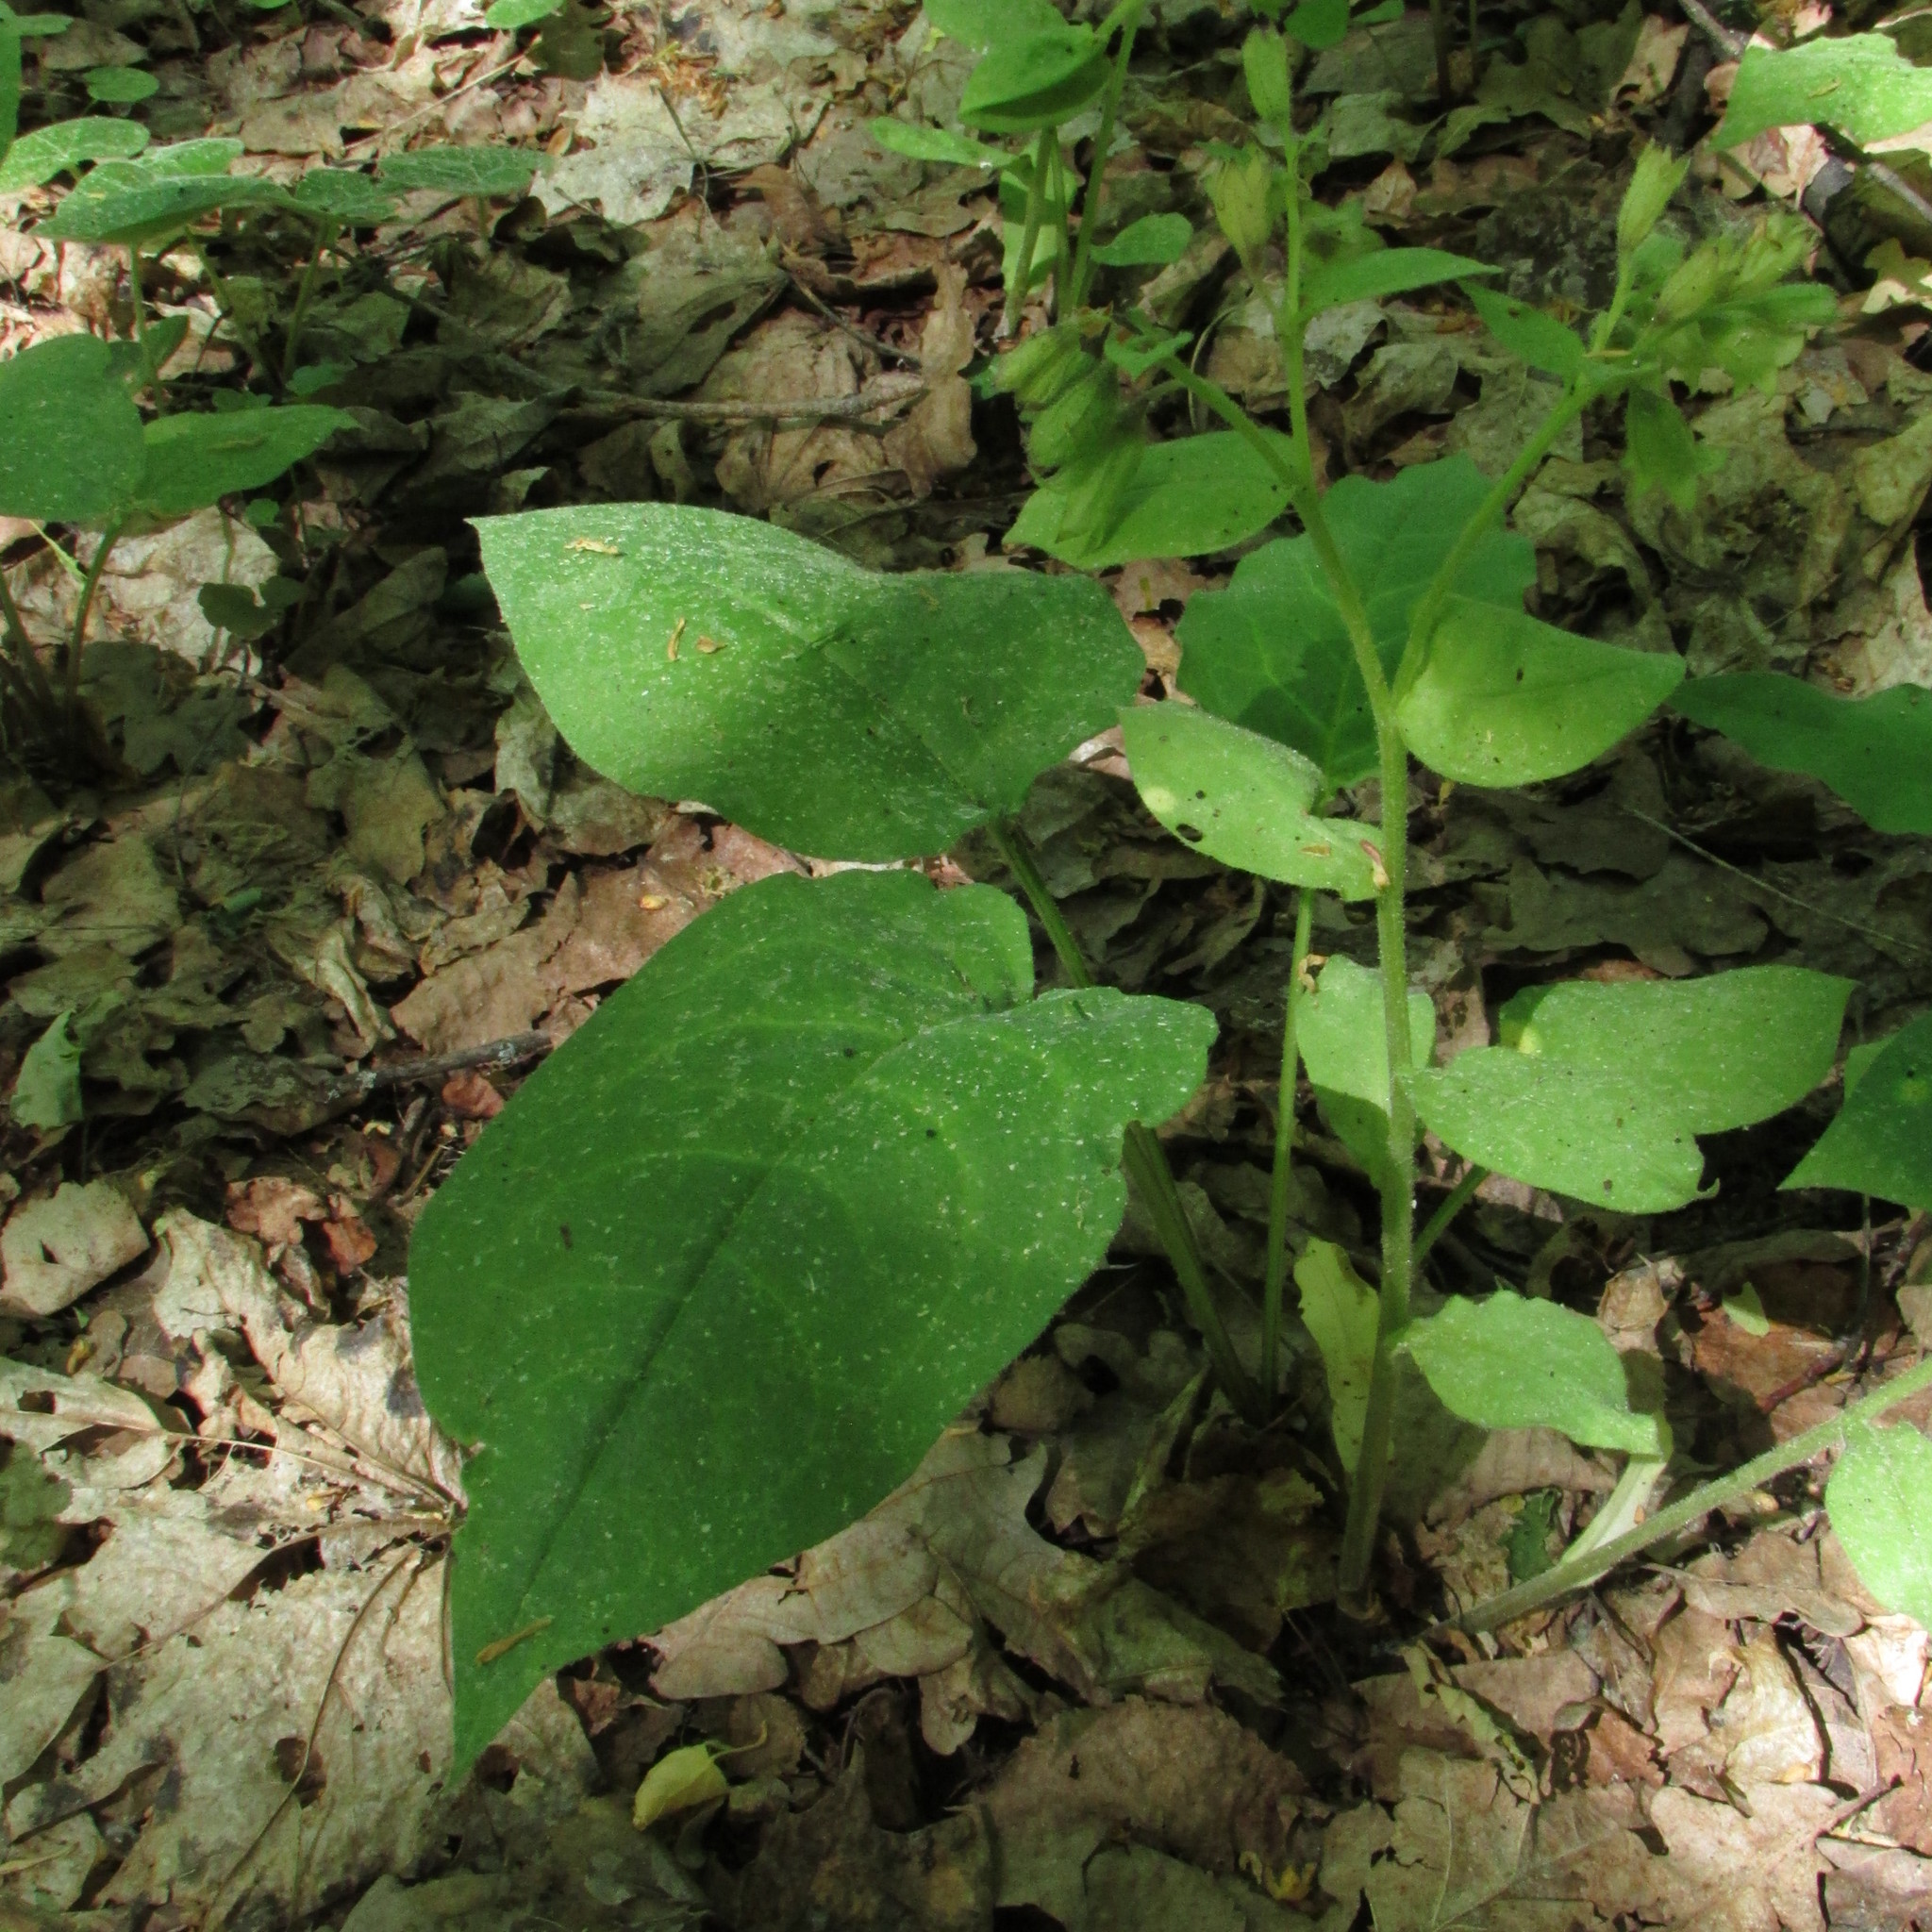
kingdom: Plantae
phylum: Tracheophyta
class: Magnoliopsida
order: Boraginales
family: Boraginaceae
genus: Pulmonaria
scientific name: Pulmonaria obscura
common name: Suffolk lungwort
